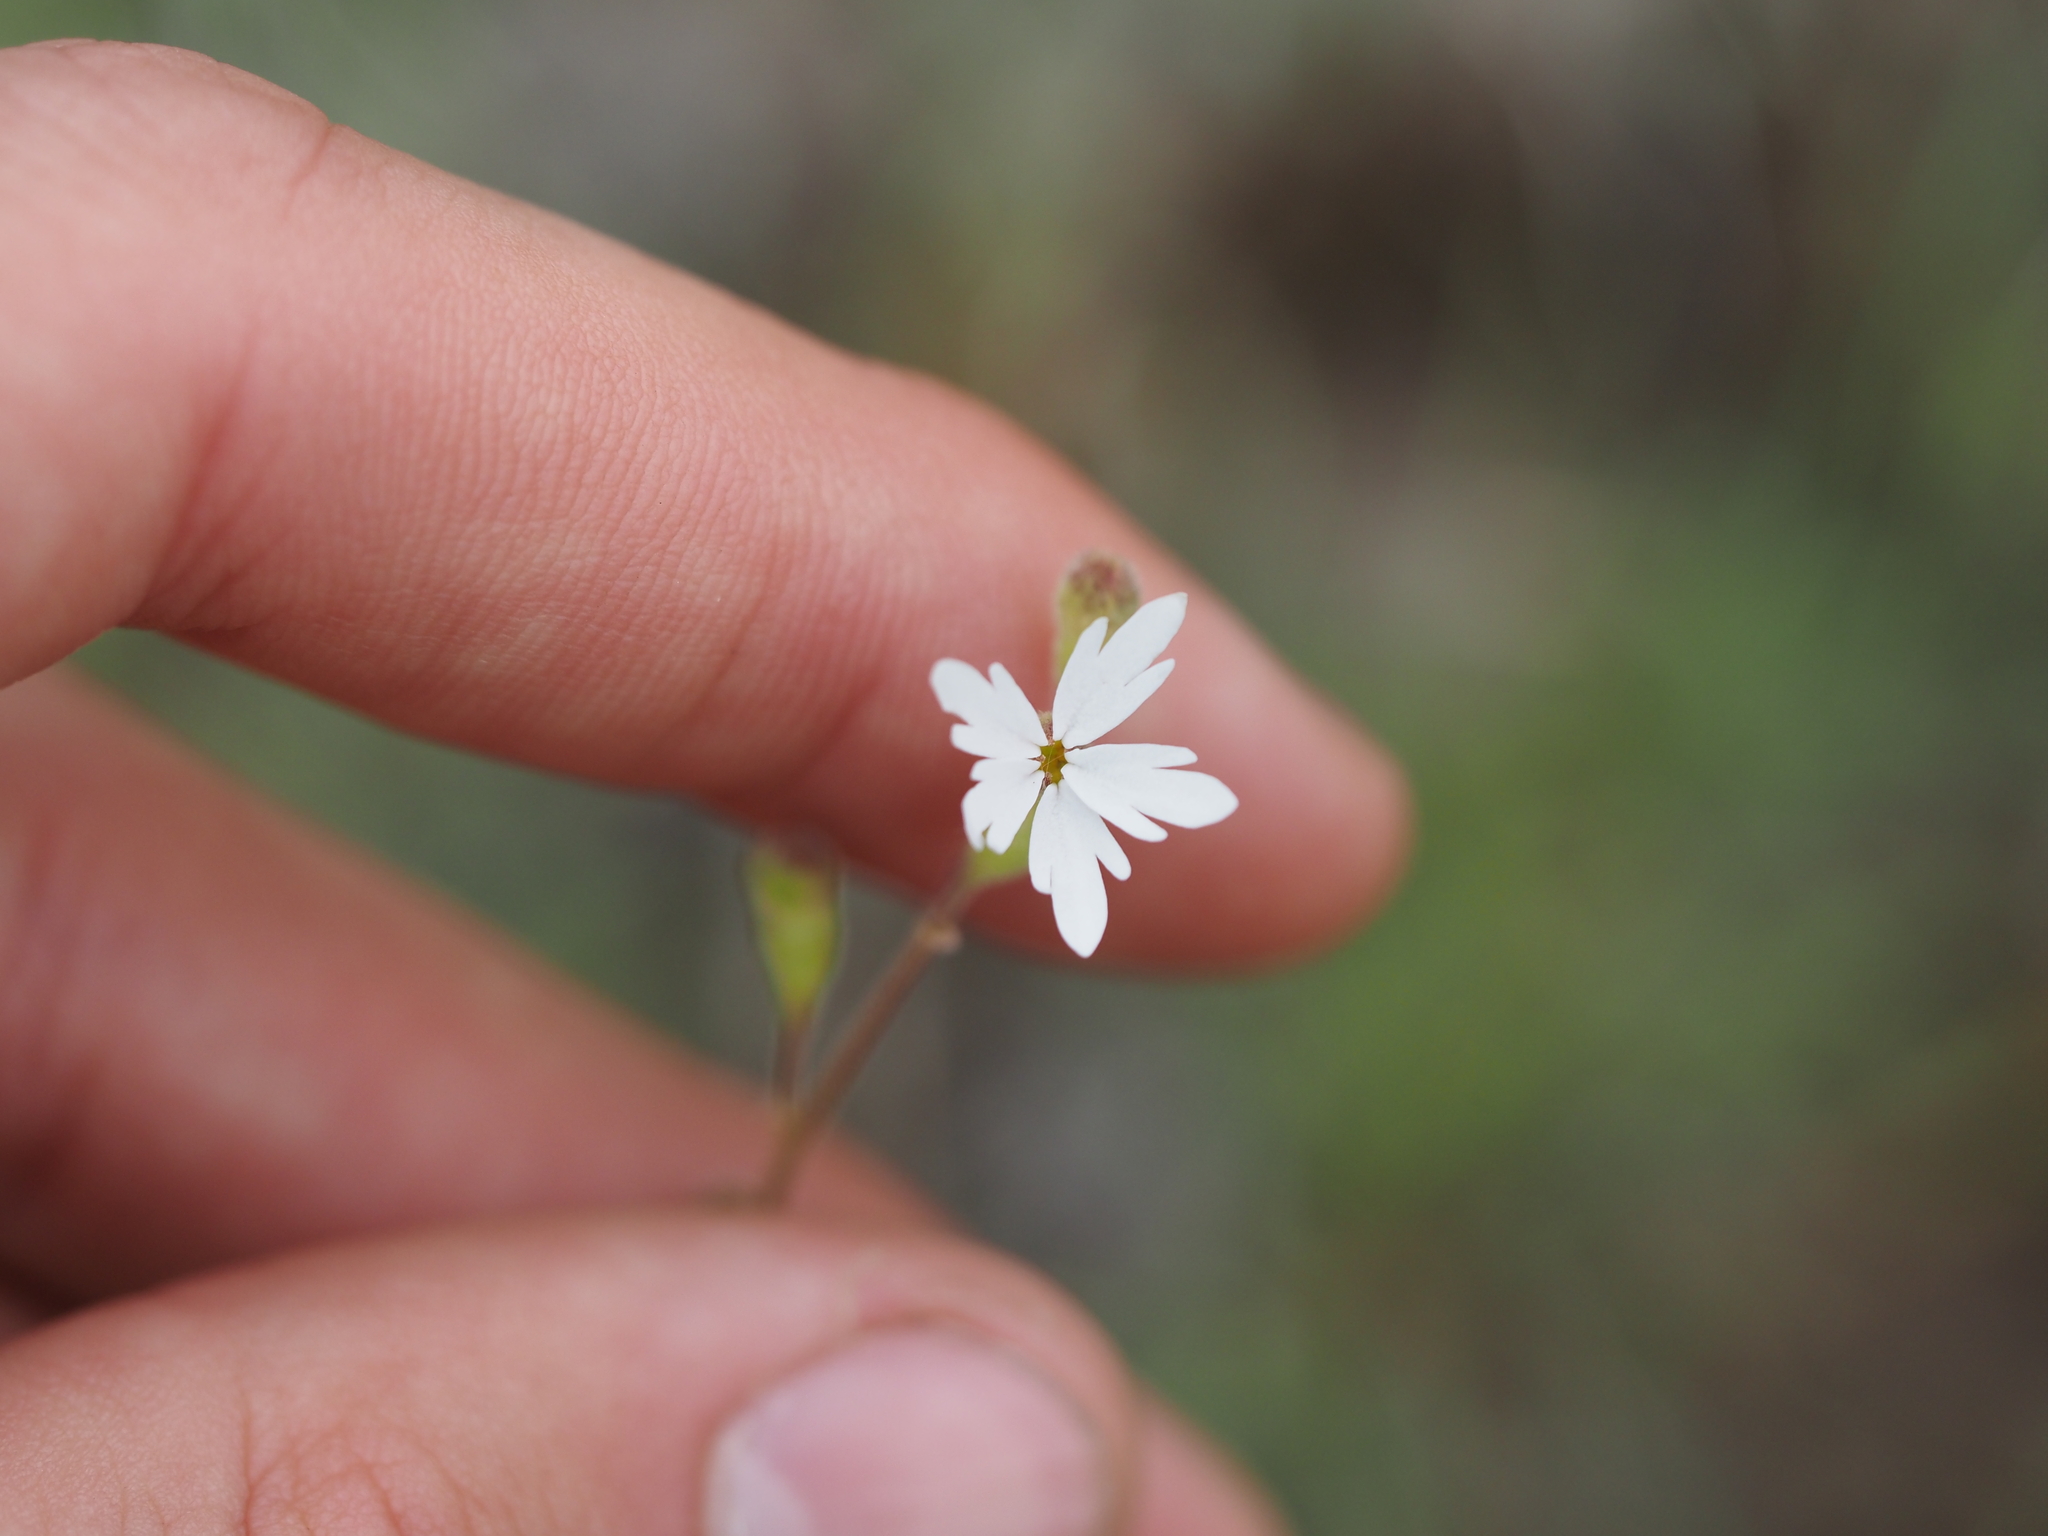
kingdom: Plantae
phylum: Tracheophyta
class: Magnoliopsida
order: Saxifragales
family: Saxifragaceae
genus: Lithophragma
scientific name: Lithophragma parviflorum
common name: Small-flowered fringe-cup
